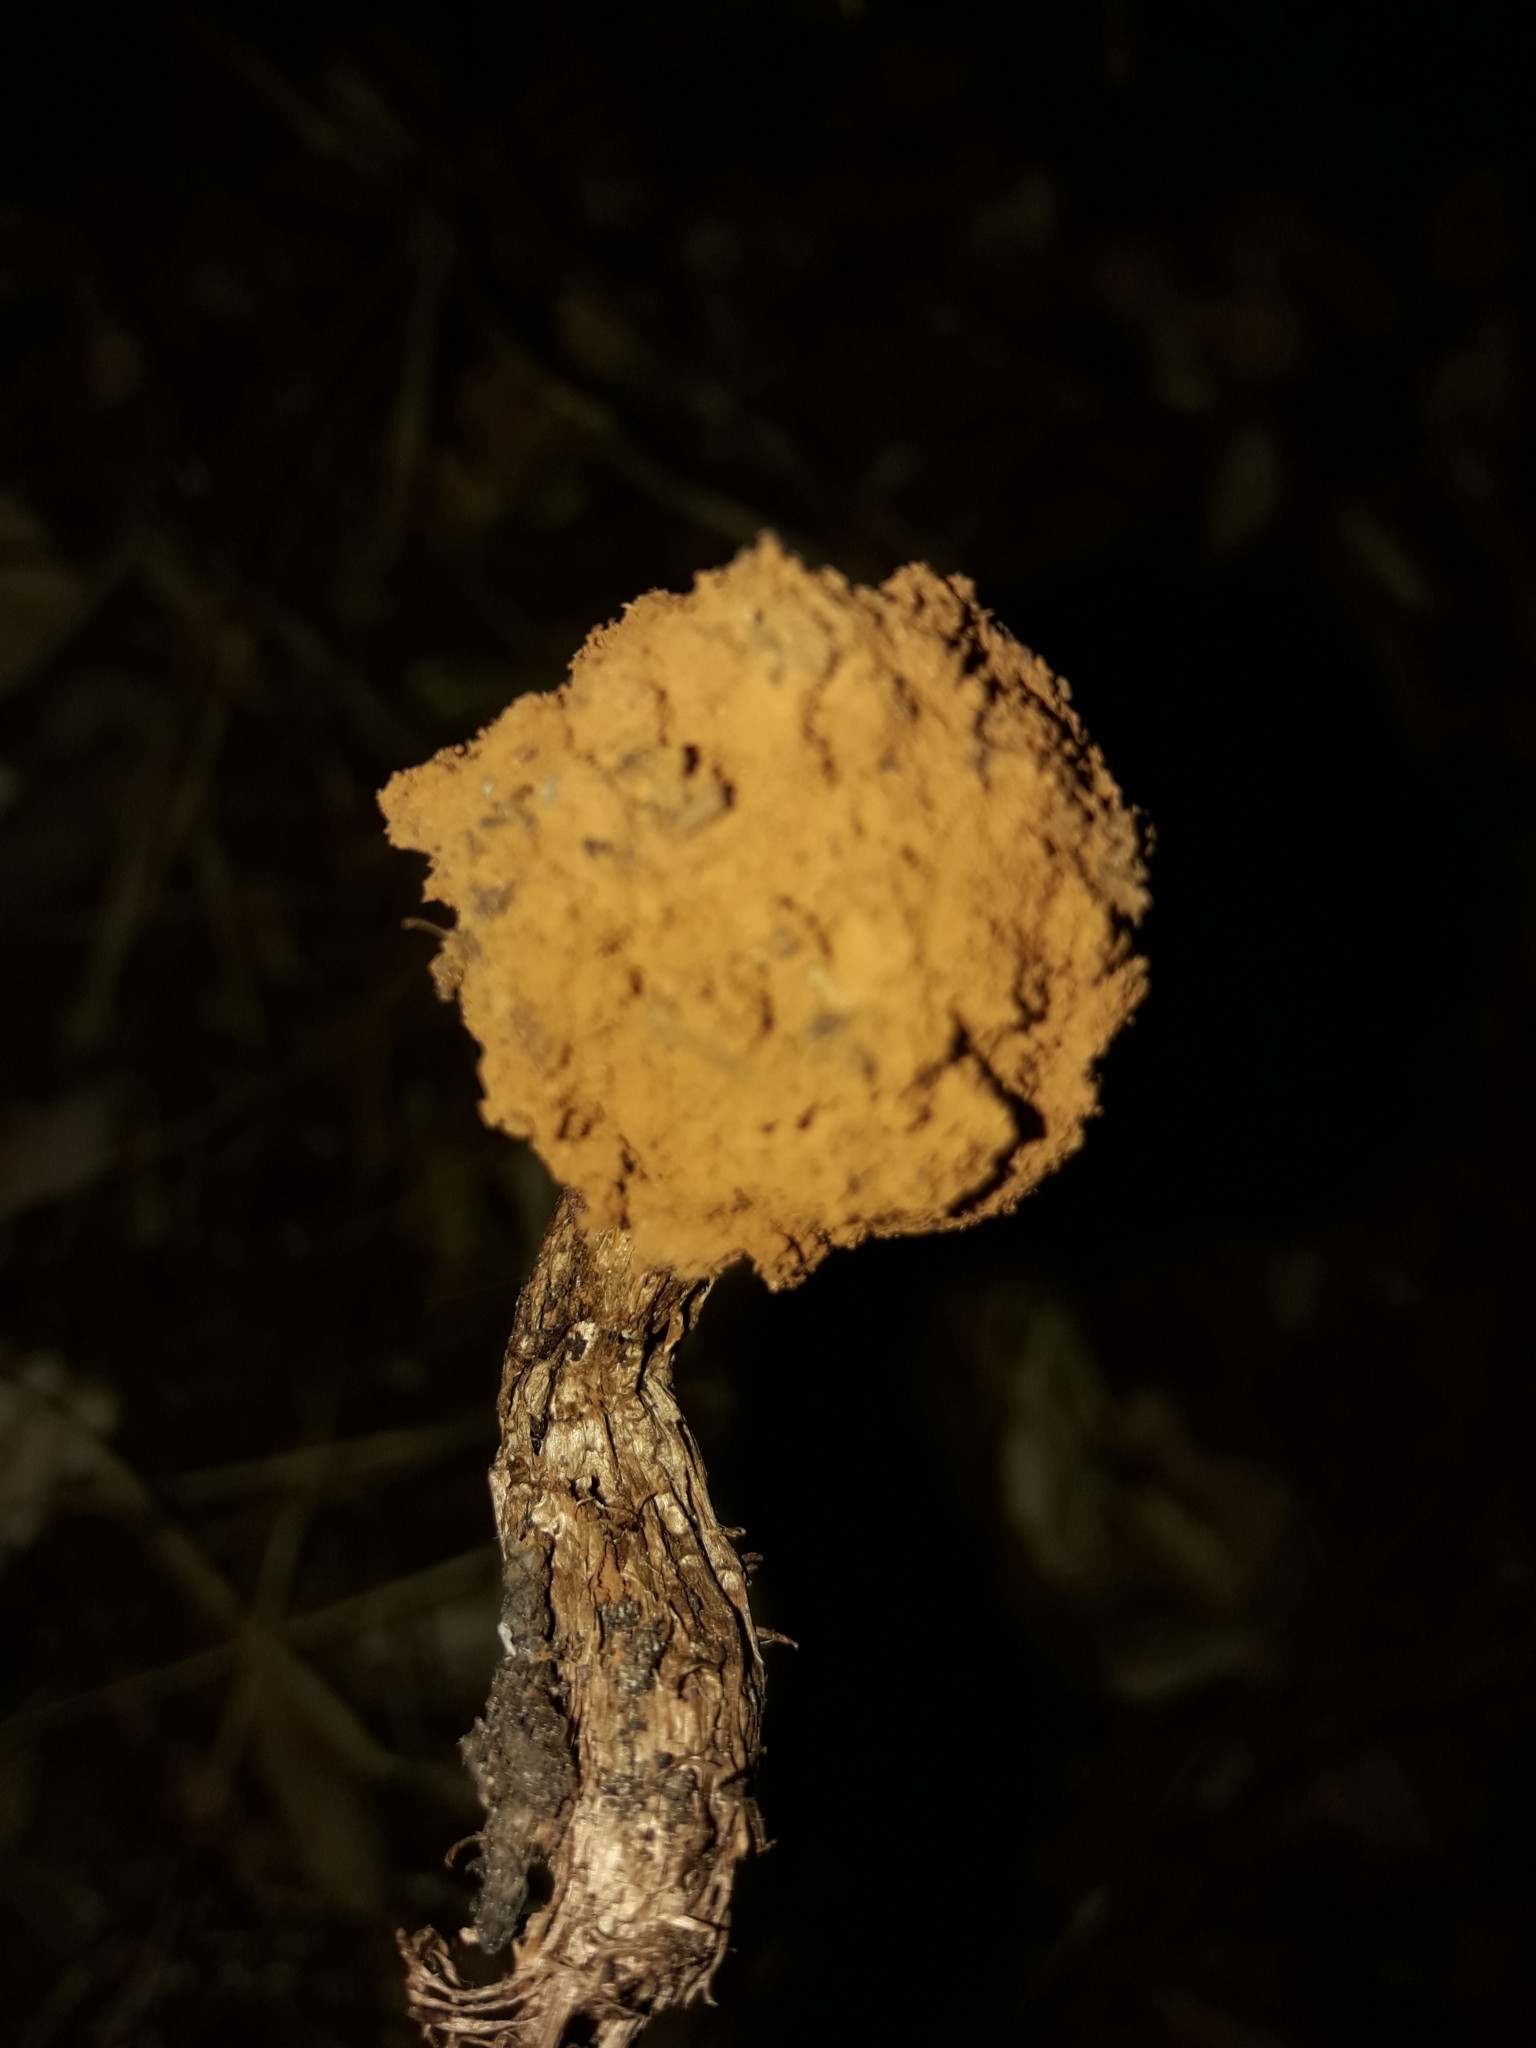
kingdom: Fungi
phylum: Basidiomycota
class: Agaricomycetes
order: Agaricales
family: Agaricaceae
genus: Battarrea
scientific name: Battarrea phalloides
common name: Sandy stiltball
